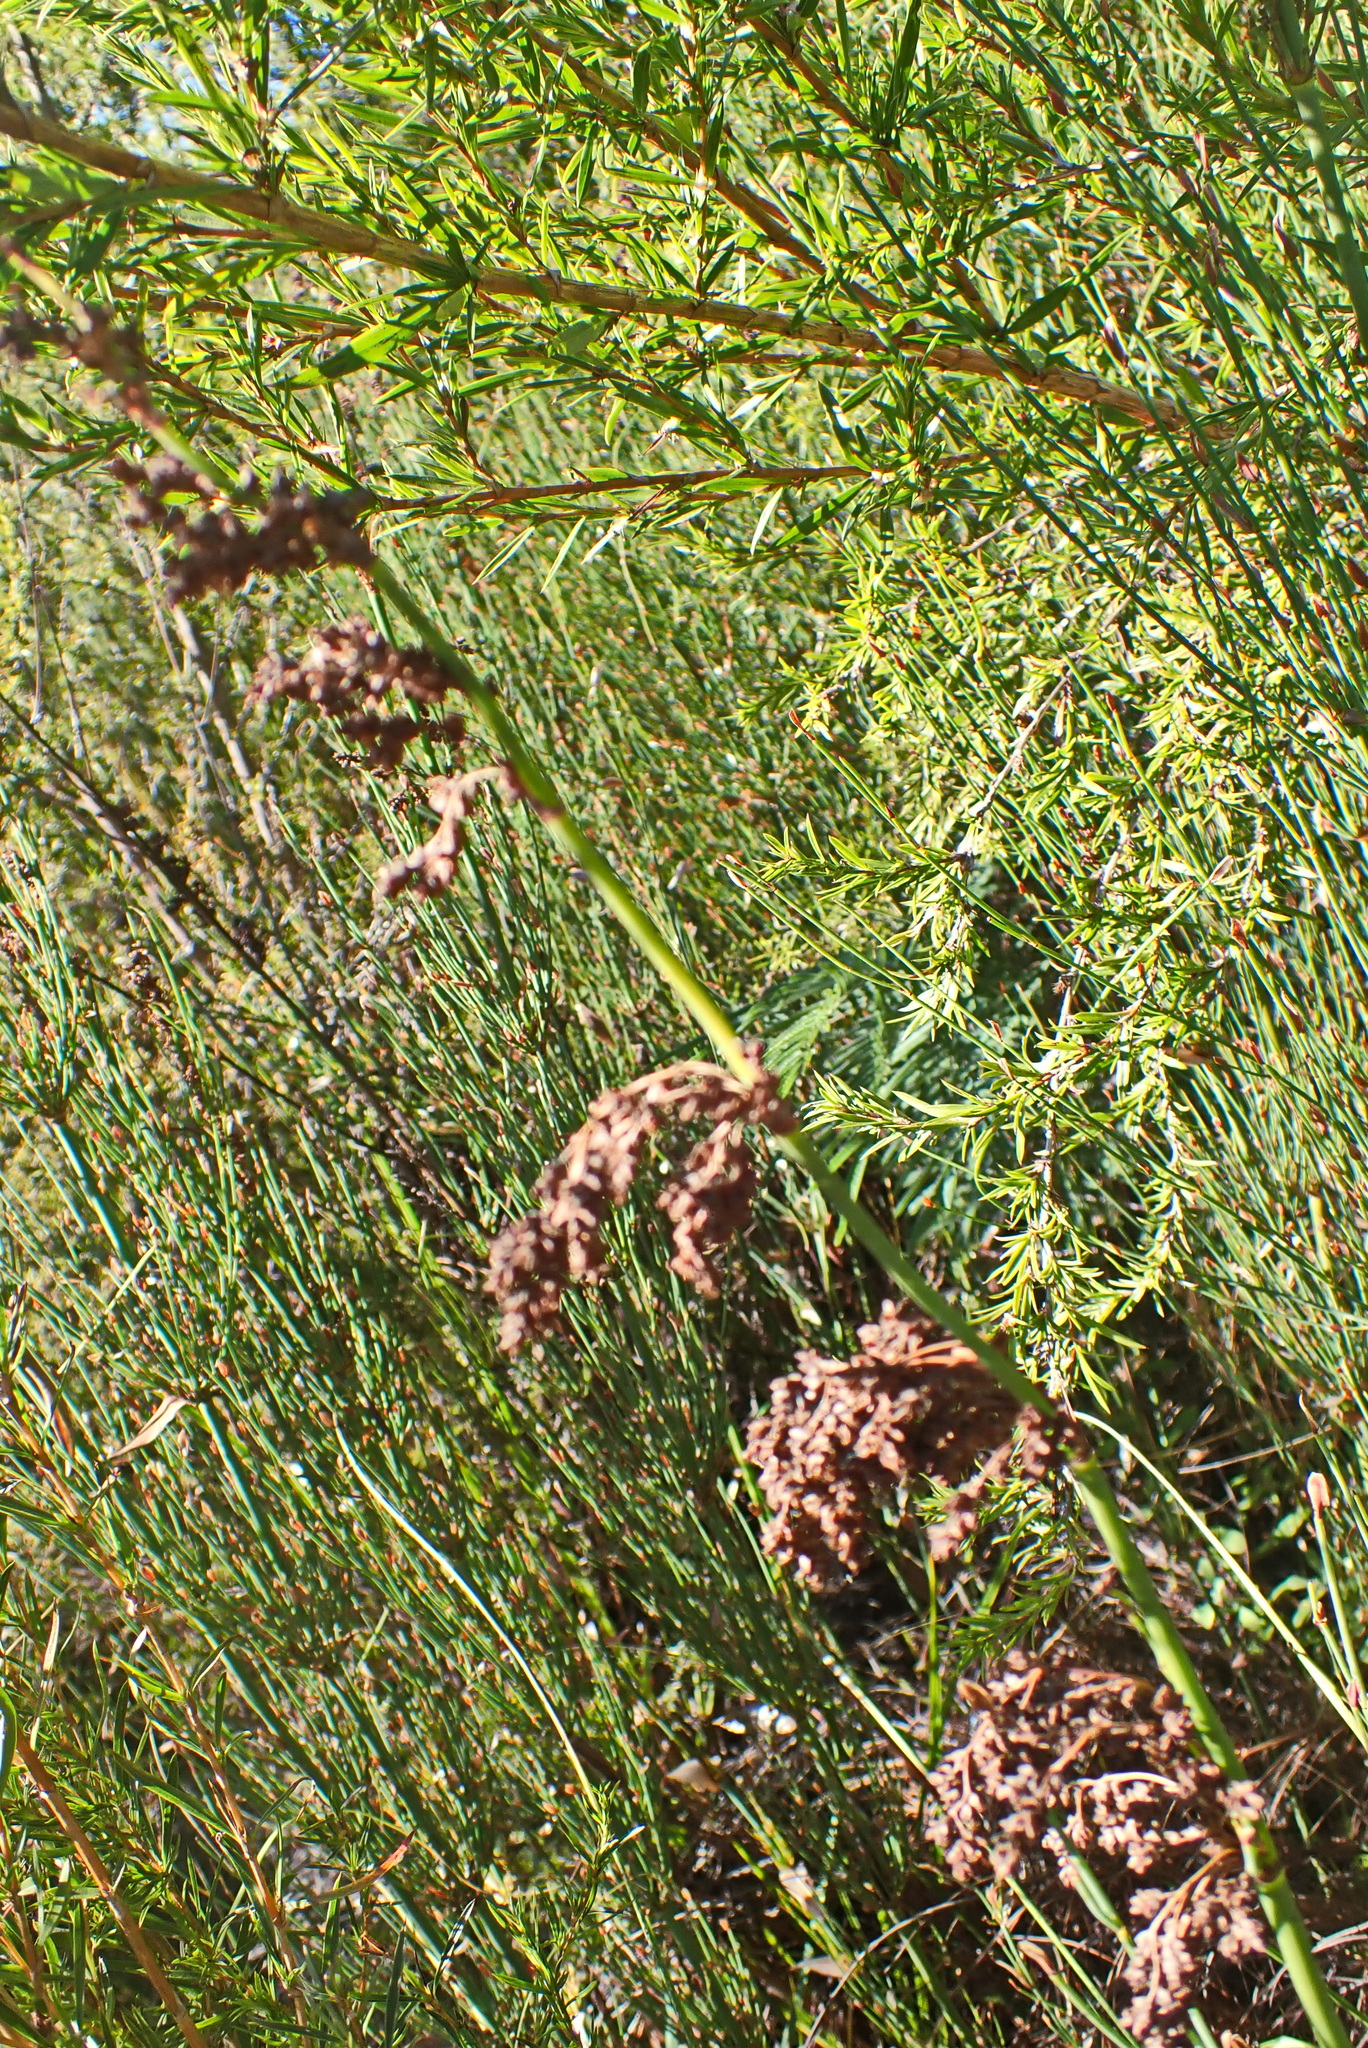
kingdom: Plantae
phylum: Tracheophyta
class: Liliopsida
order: Poales
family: Restionaceae
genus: Elegia
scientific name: Elegia capensis
